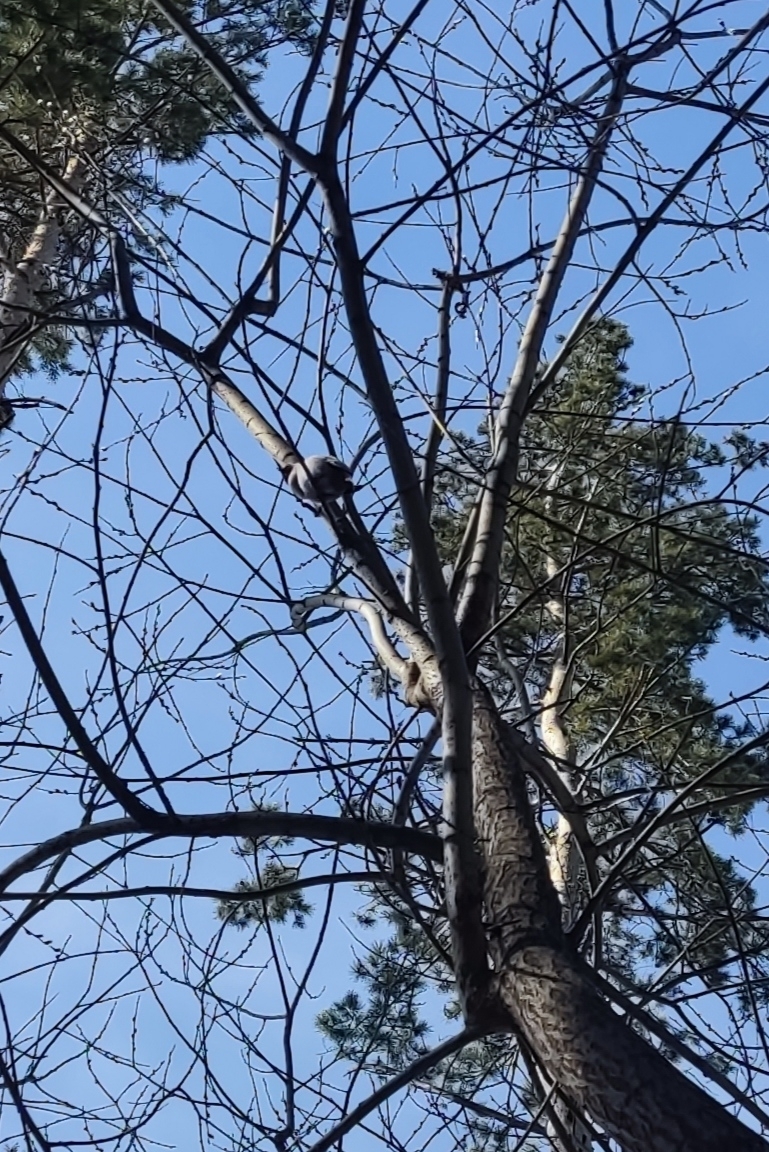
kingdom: Animalia
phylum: Chordata
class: Aves
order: Passeriformes
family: Bombycillidae
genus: Bombycilla
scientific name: Bombycilla garrulus
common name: Bohemian waxwing
